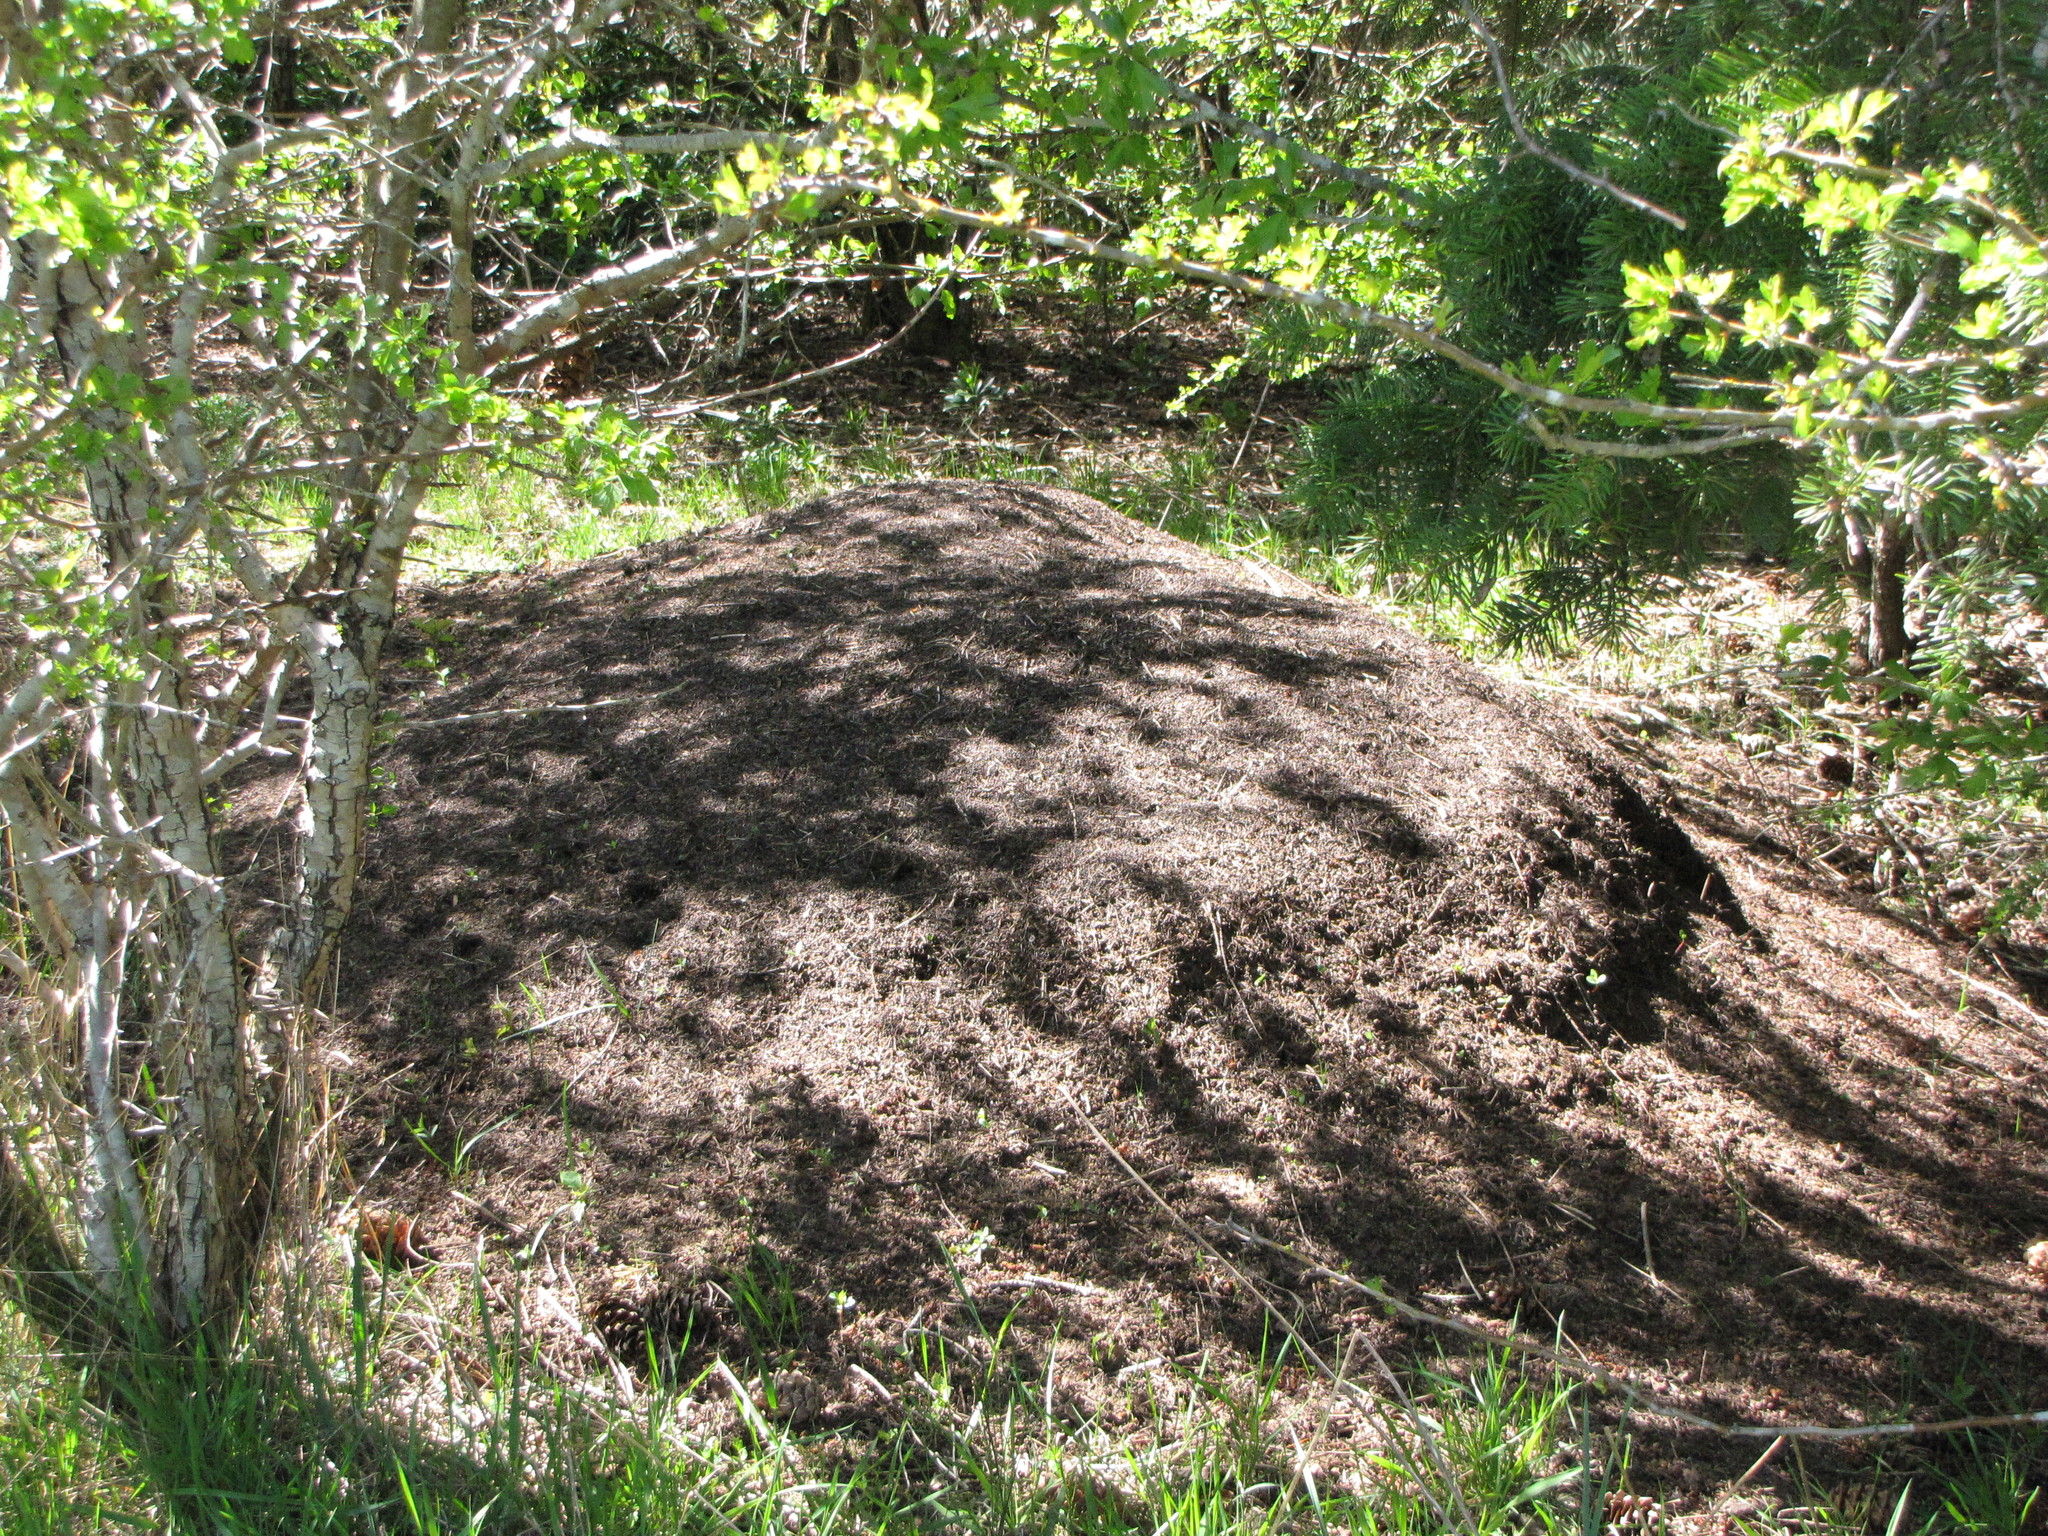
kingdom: Animalia
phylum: Arthropoda
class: Insecta
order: Hymenoptera
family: Formicidae
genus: Formica
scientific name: Formica obscuripes
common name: Western thatching ant
